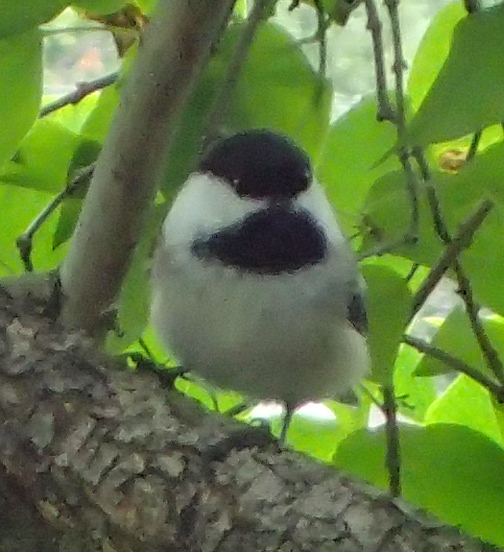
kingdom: Animalia
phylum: Chordata
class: Aves
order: Passeriformes
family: Paridae
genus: Poecile
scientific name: Poecile atricapillus
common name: Black-capped chickadee
